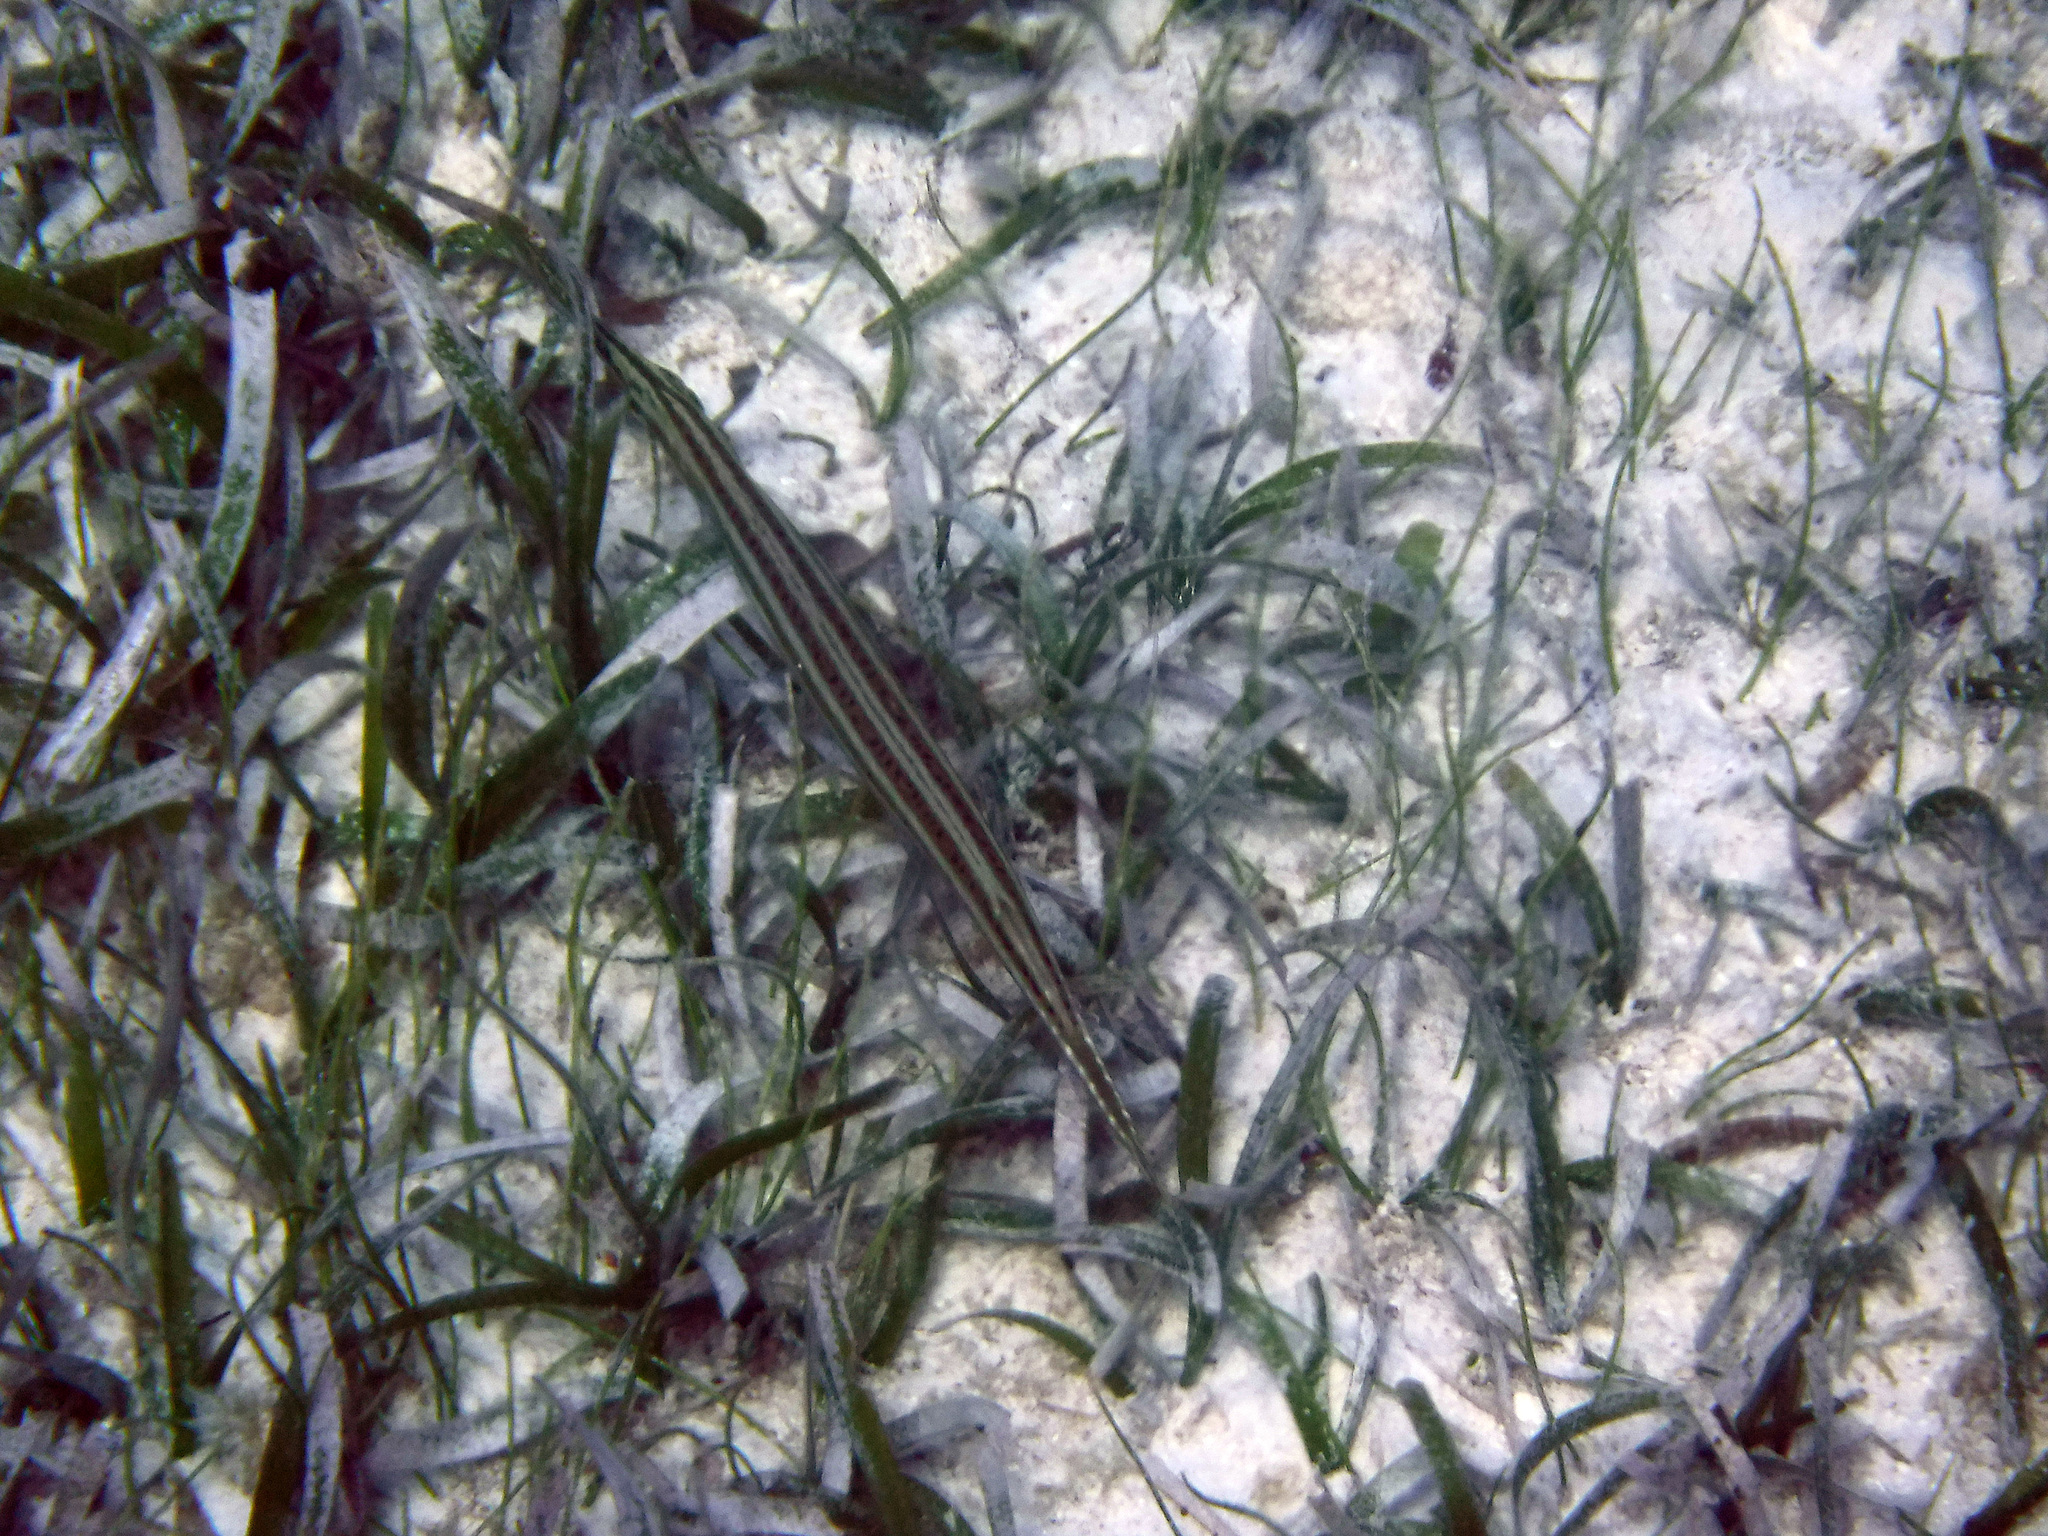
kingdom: Animalia
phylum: Chordata
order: Syngnathiformes
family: Aulostomidae
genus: Aulostomus
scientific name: Aulostomus maculatus
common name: West atlantic trumpetfish
